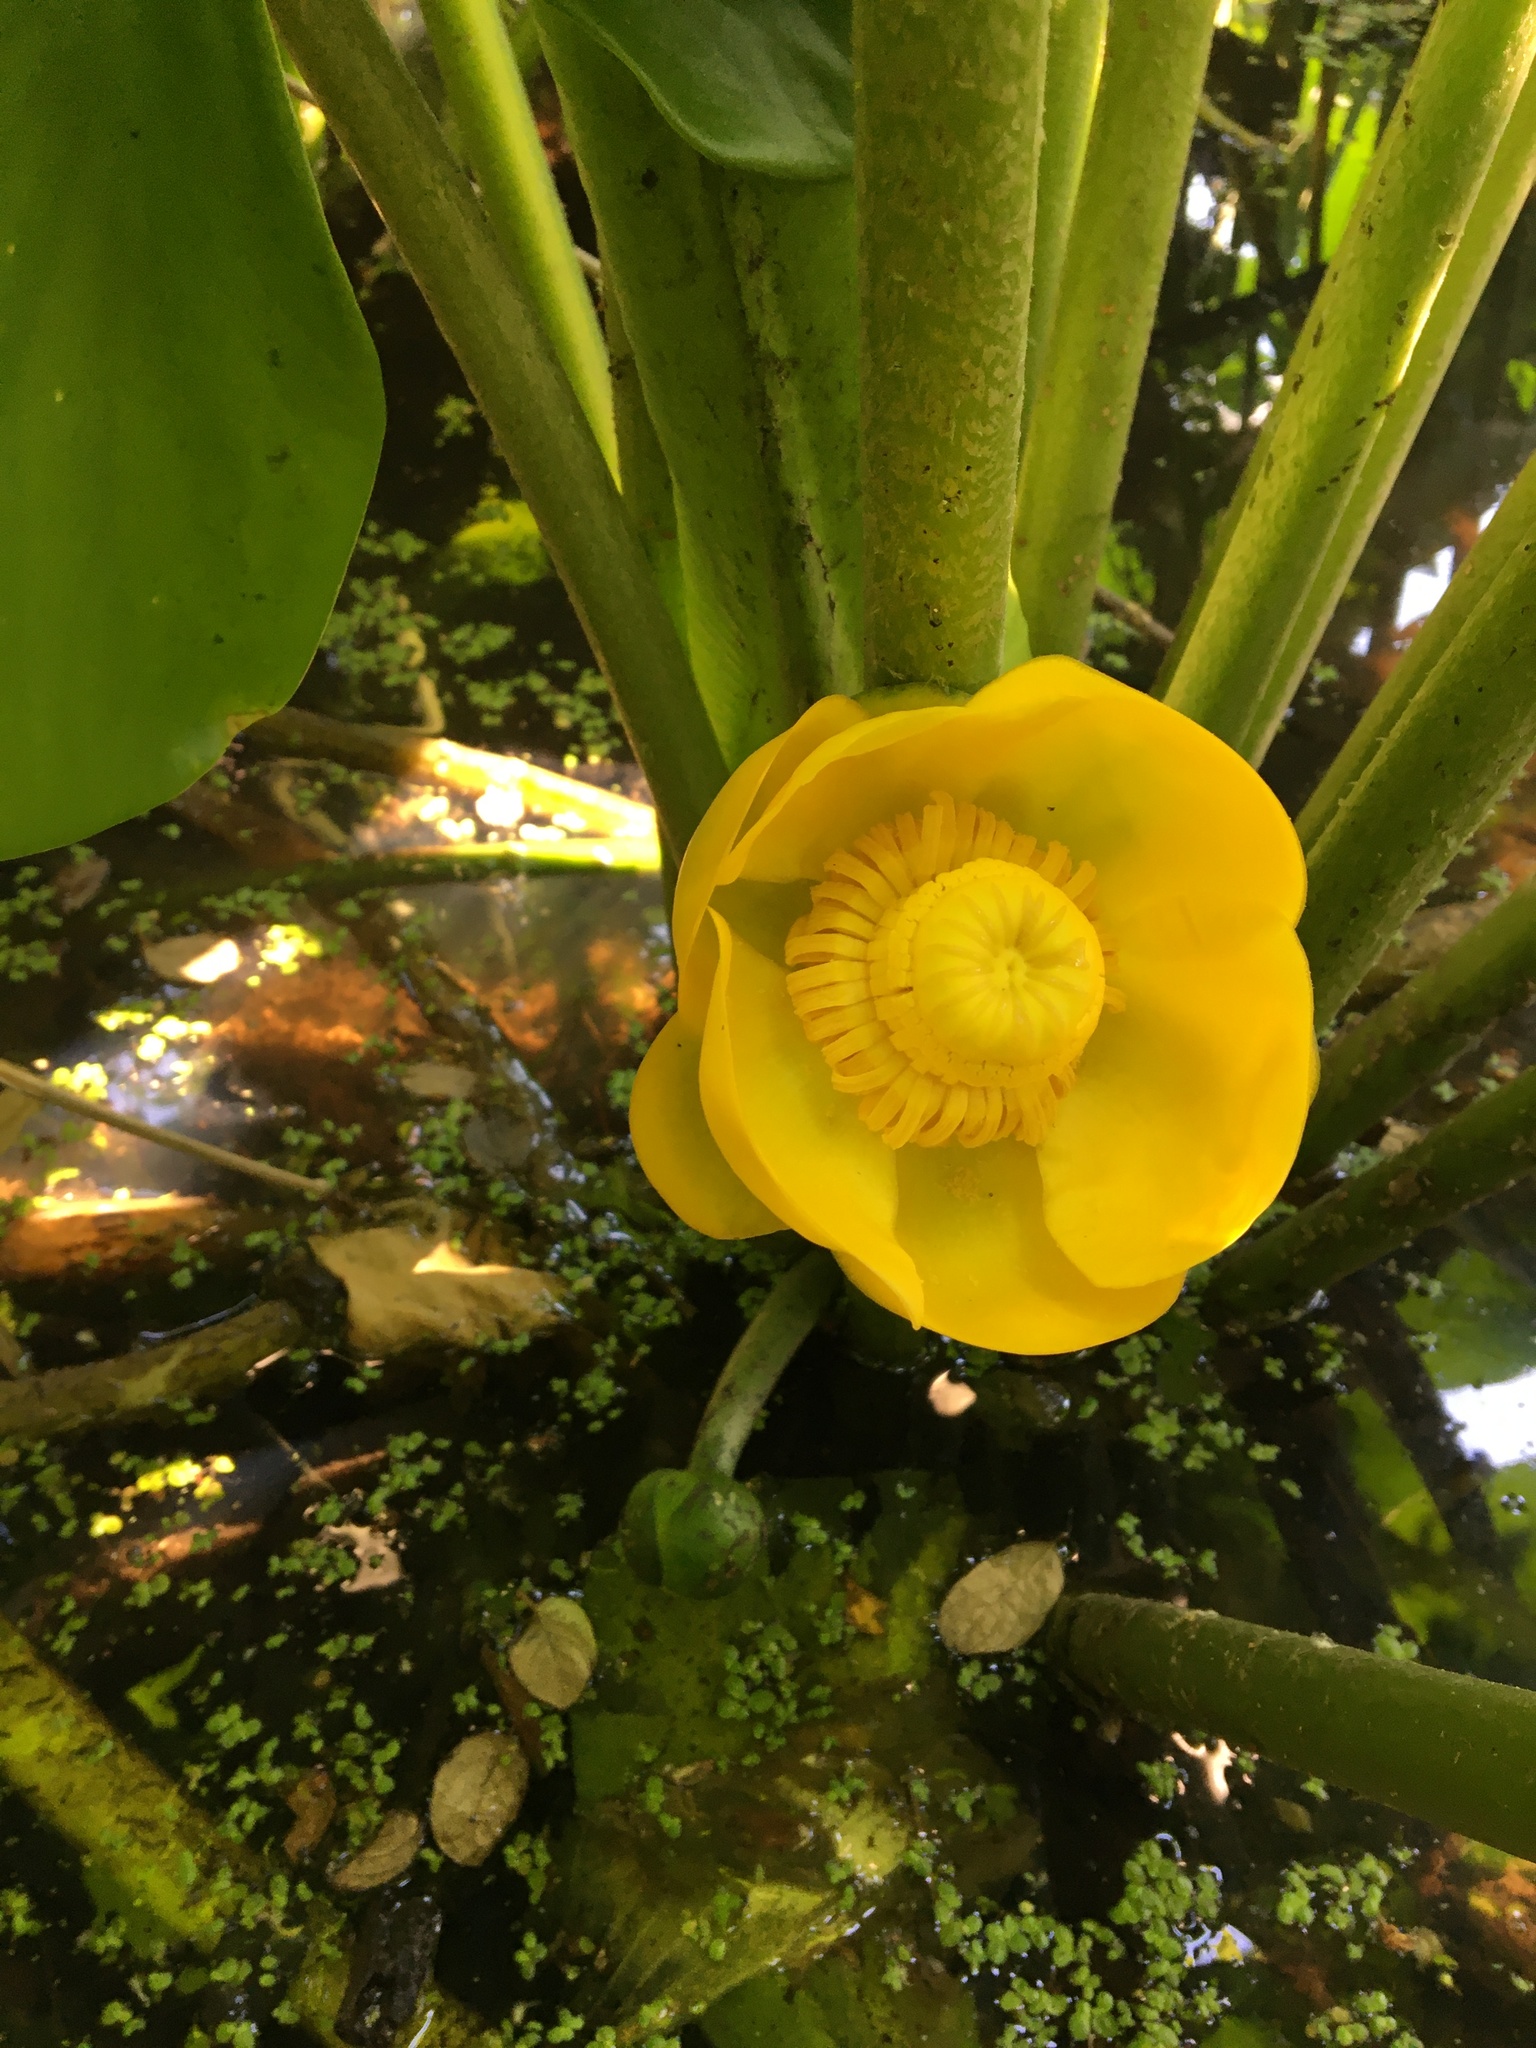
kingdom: Plantae
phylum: Tracheophyta
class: Magnoliopsida
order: Nymphaeales
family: Nymphaeaceae
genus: Nuphar
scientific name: Nuphar polysepala
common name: Rocky mountain cow-lily
